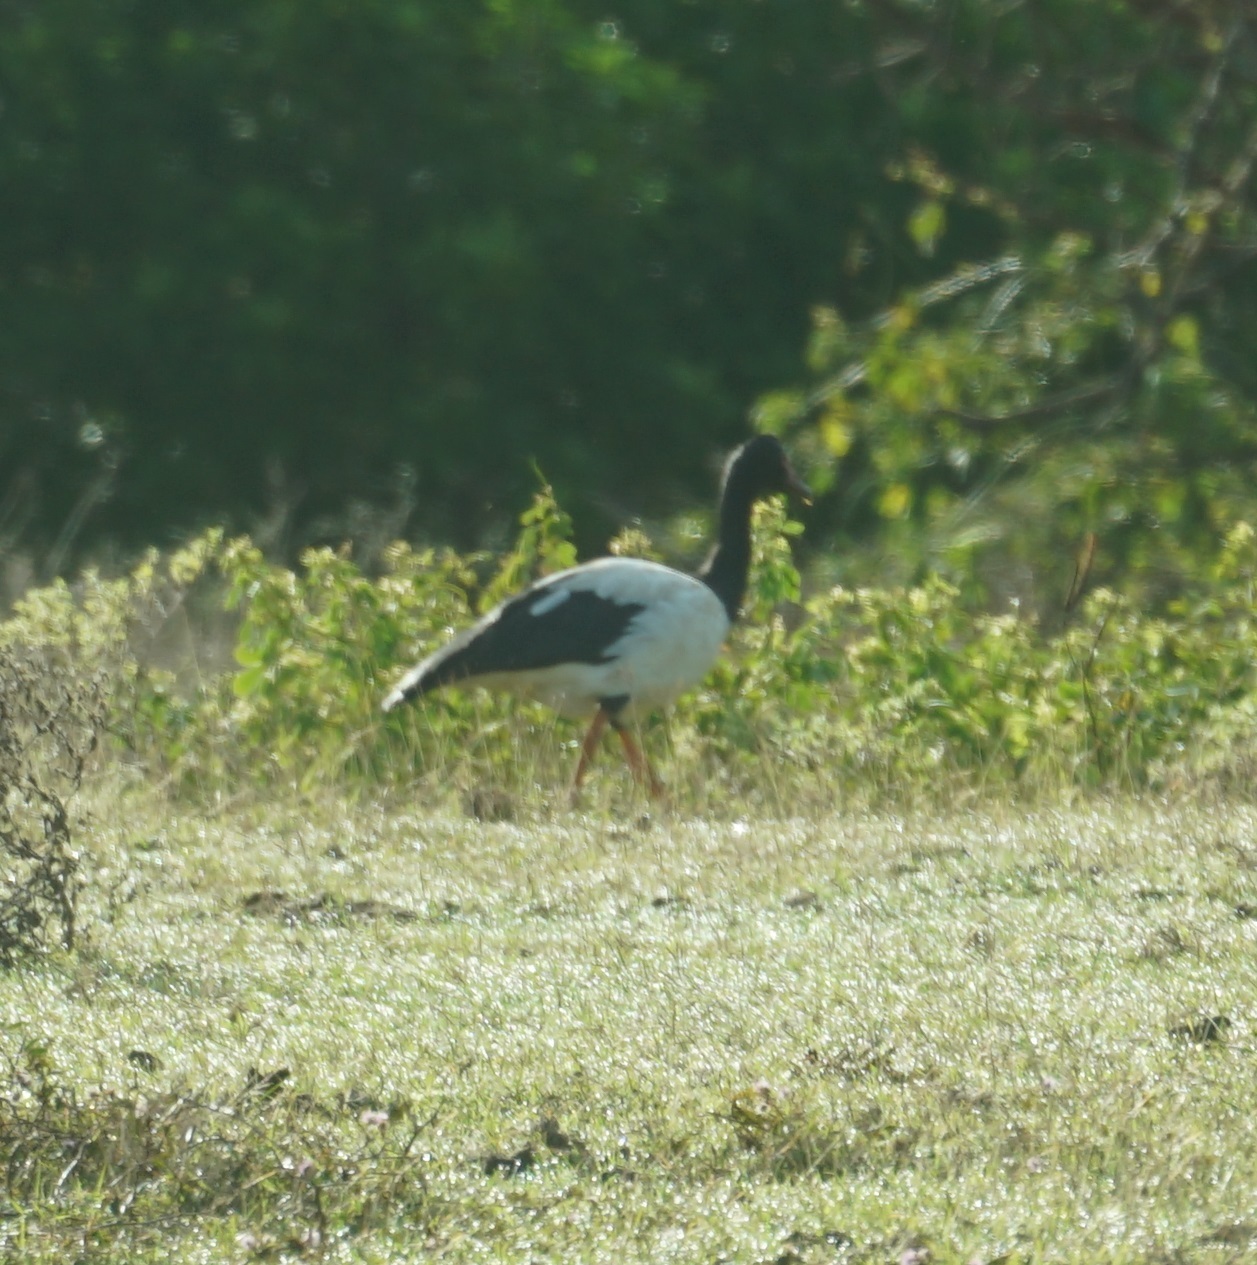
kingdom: Animalia
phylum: Chordata
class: Aves
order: Anseriformes
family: Anseranatidae
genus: Anseranas
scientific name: Anseranas semipalmata
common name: Magpie goose
